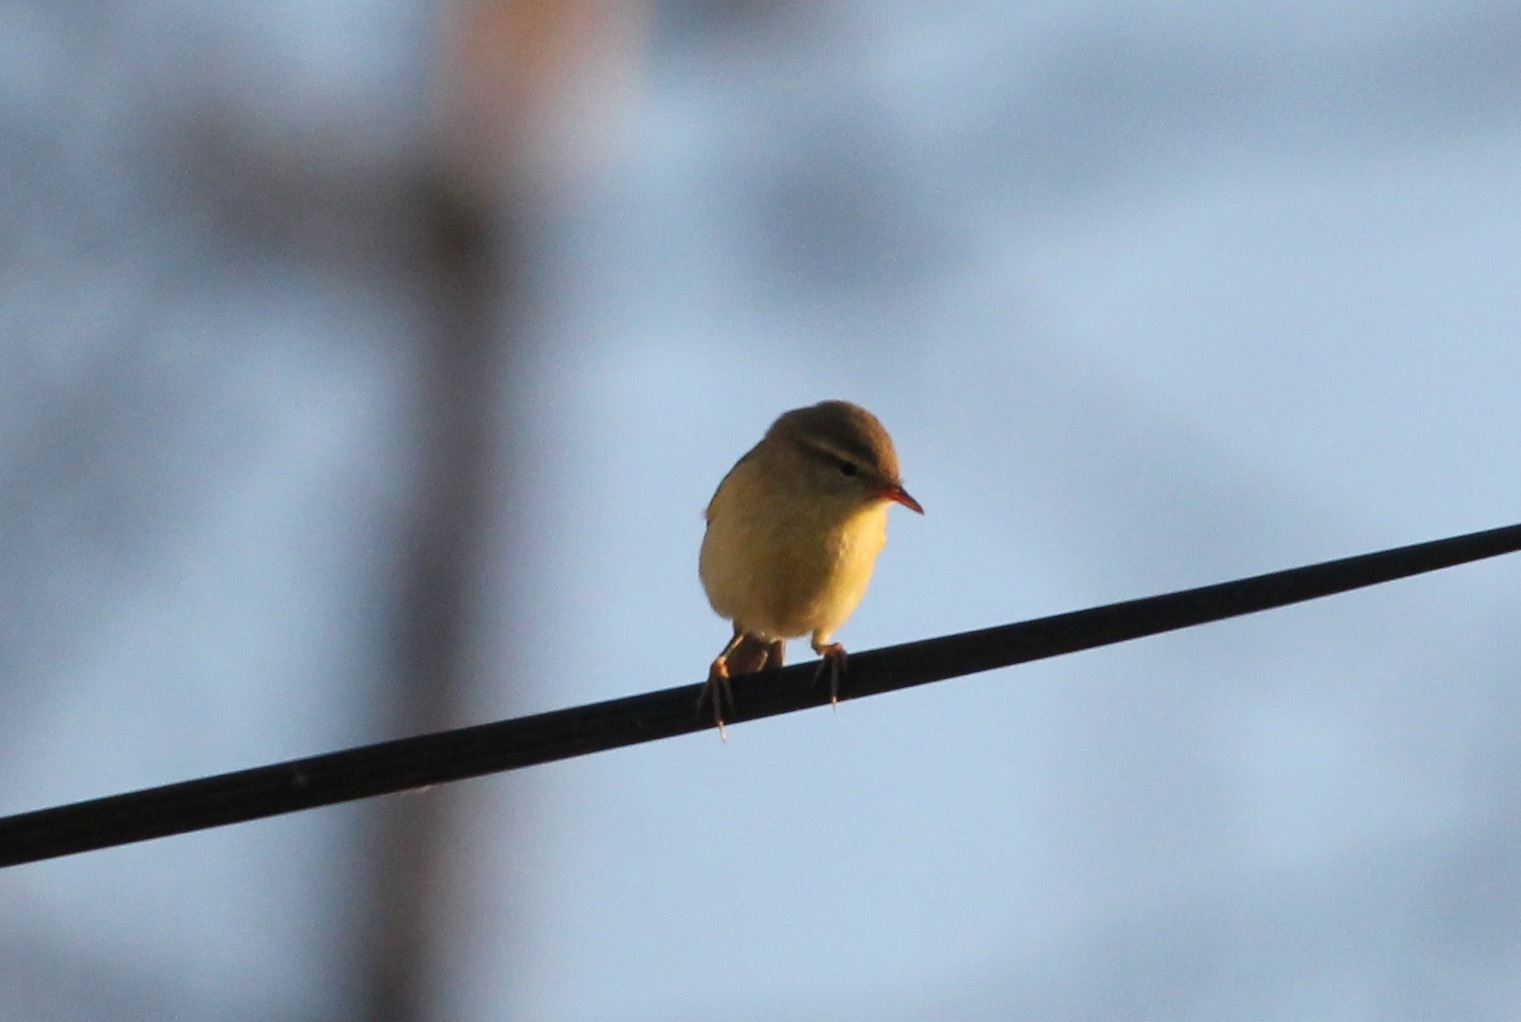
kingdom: Animalia
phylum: Chordata
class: Aves
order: Passeriformes
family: Phylloscopidae
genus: Phylloscopus
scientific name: Phylloscopus trochilus
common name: Willow warbler
